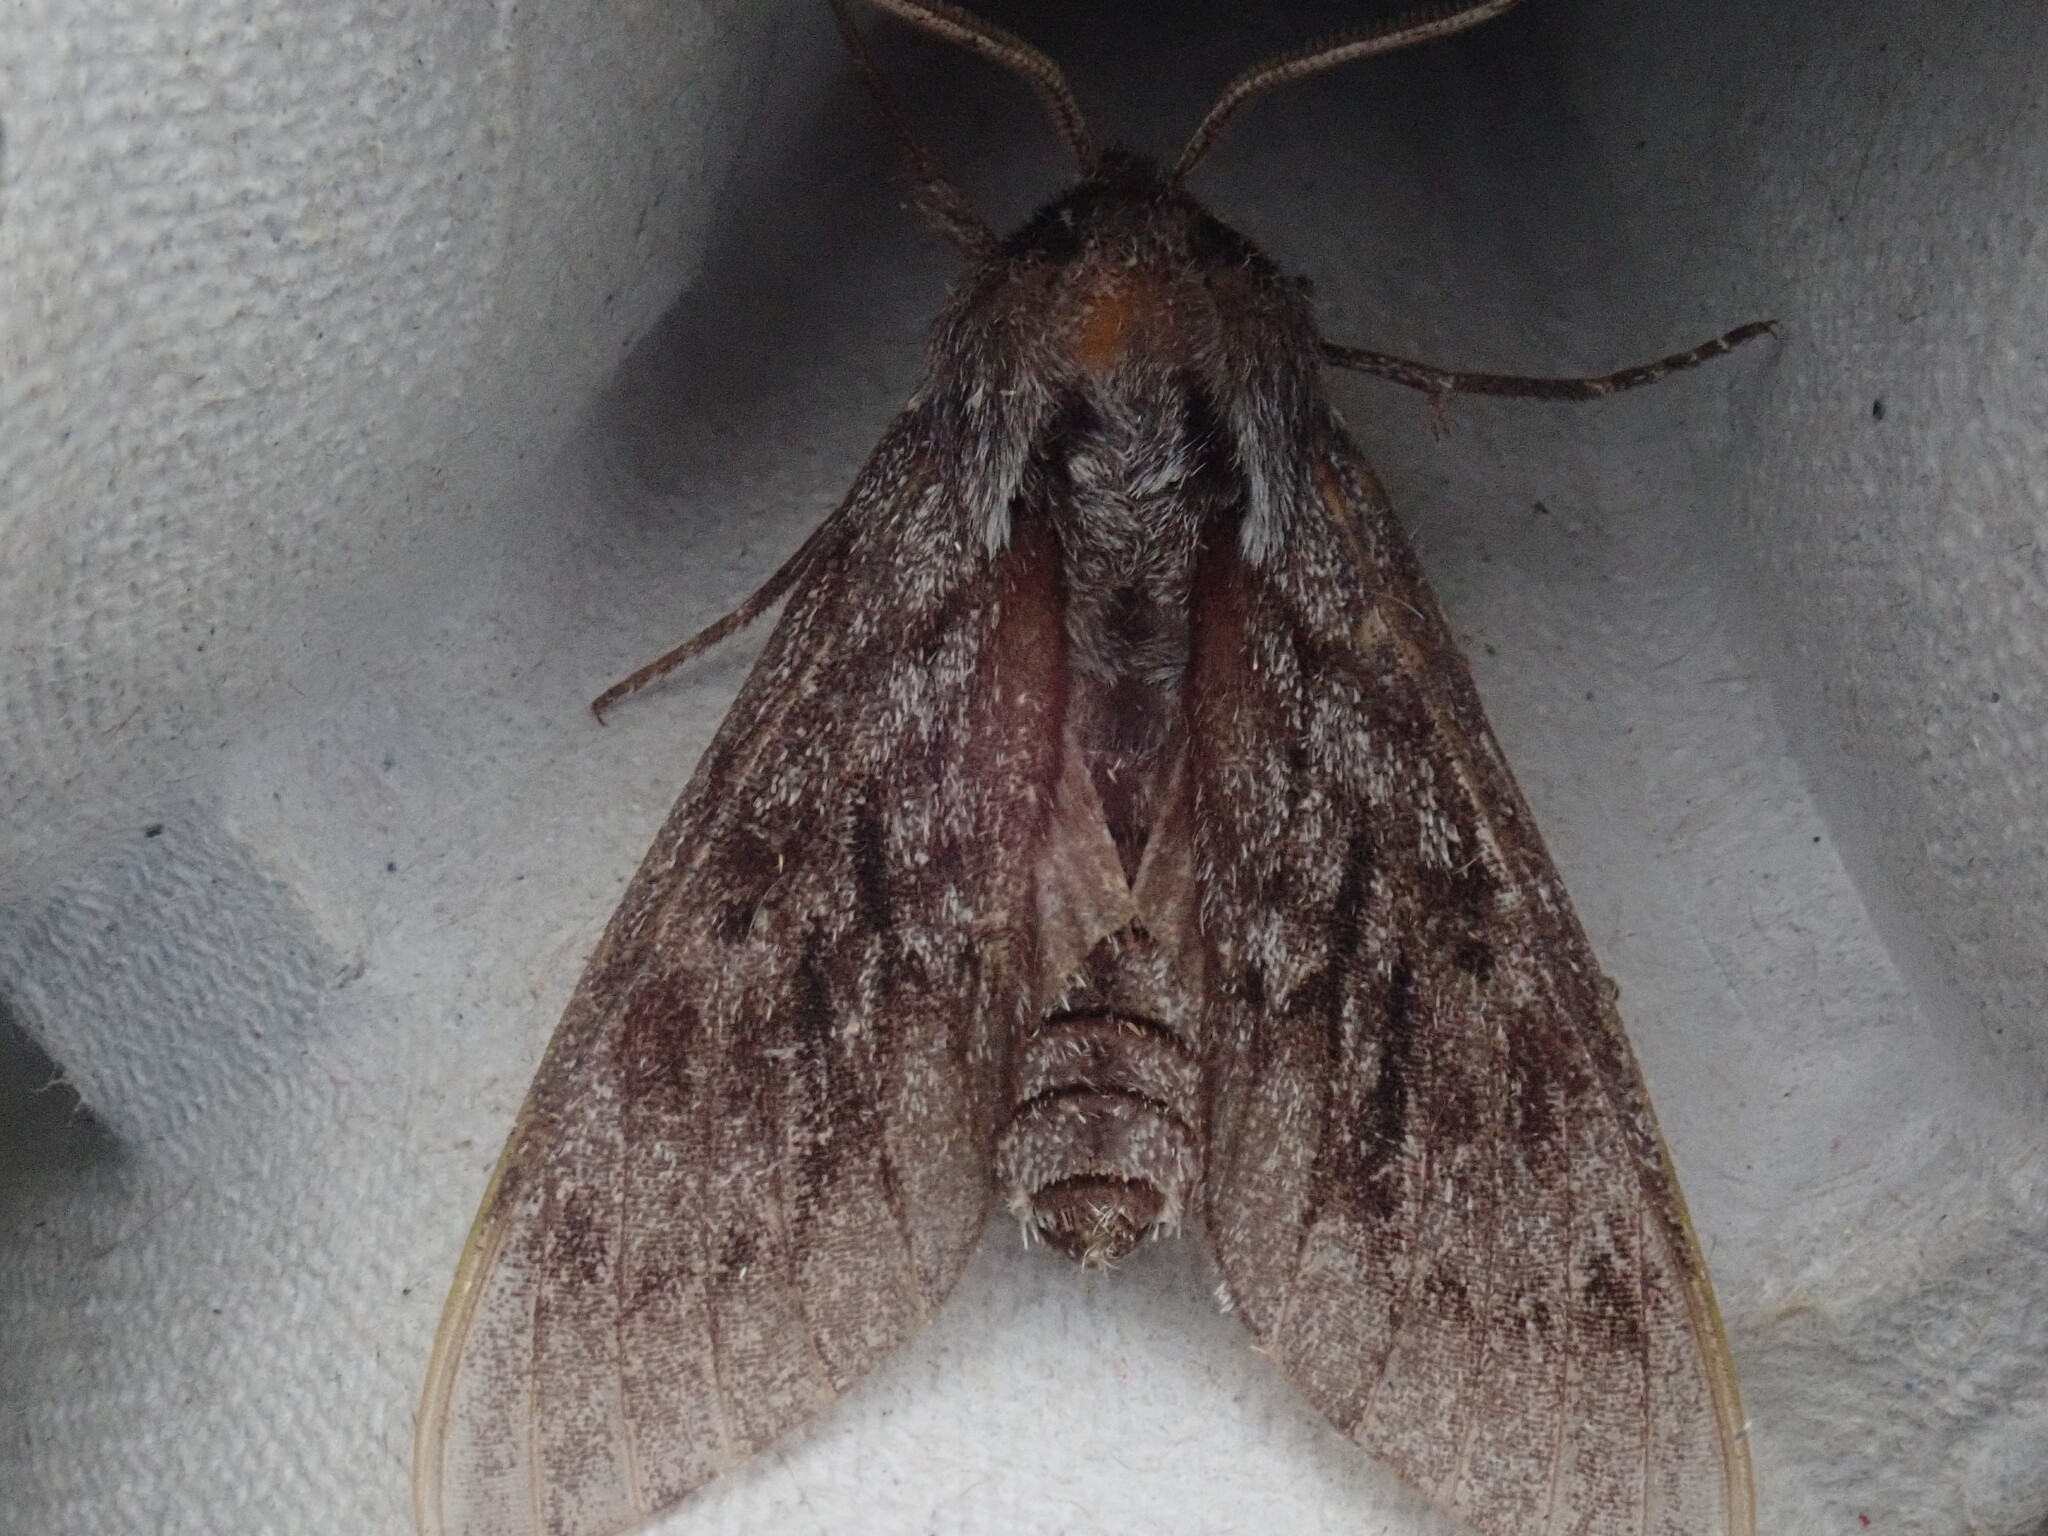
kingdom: Animalia
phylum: Arthropoda
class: Insecta
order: Lepidoptera
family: Sphingidae
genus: Lapara
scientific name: Lapara bombycoides
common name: Northern pine sphinx
